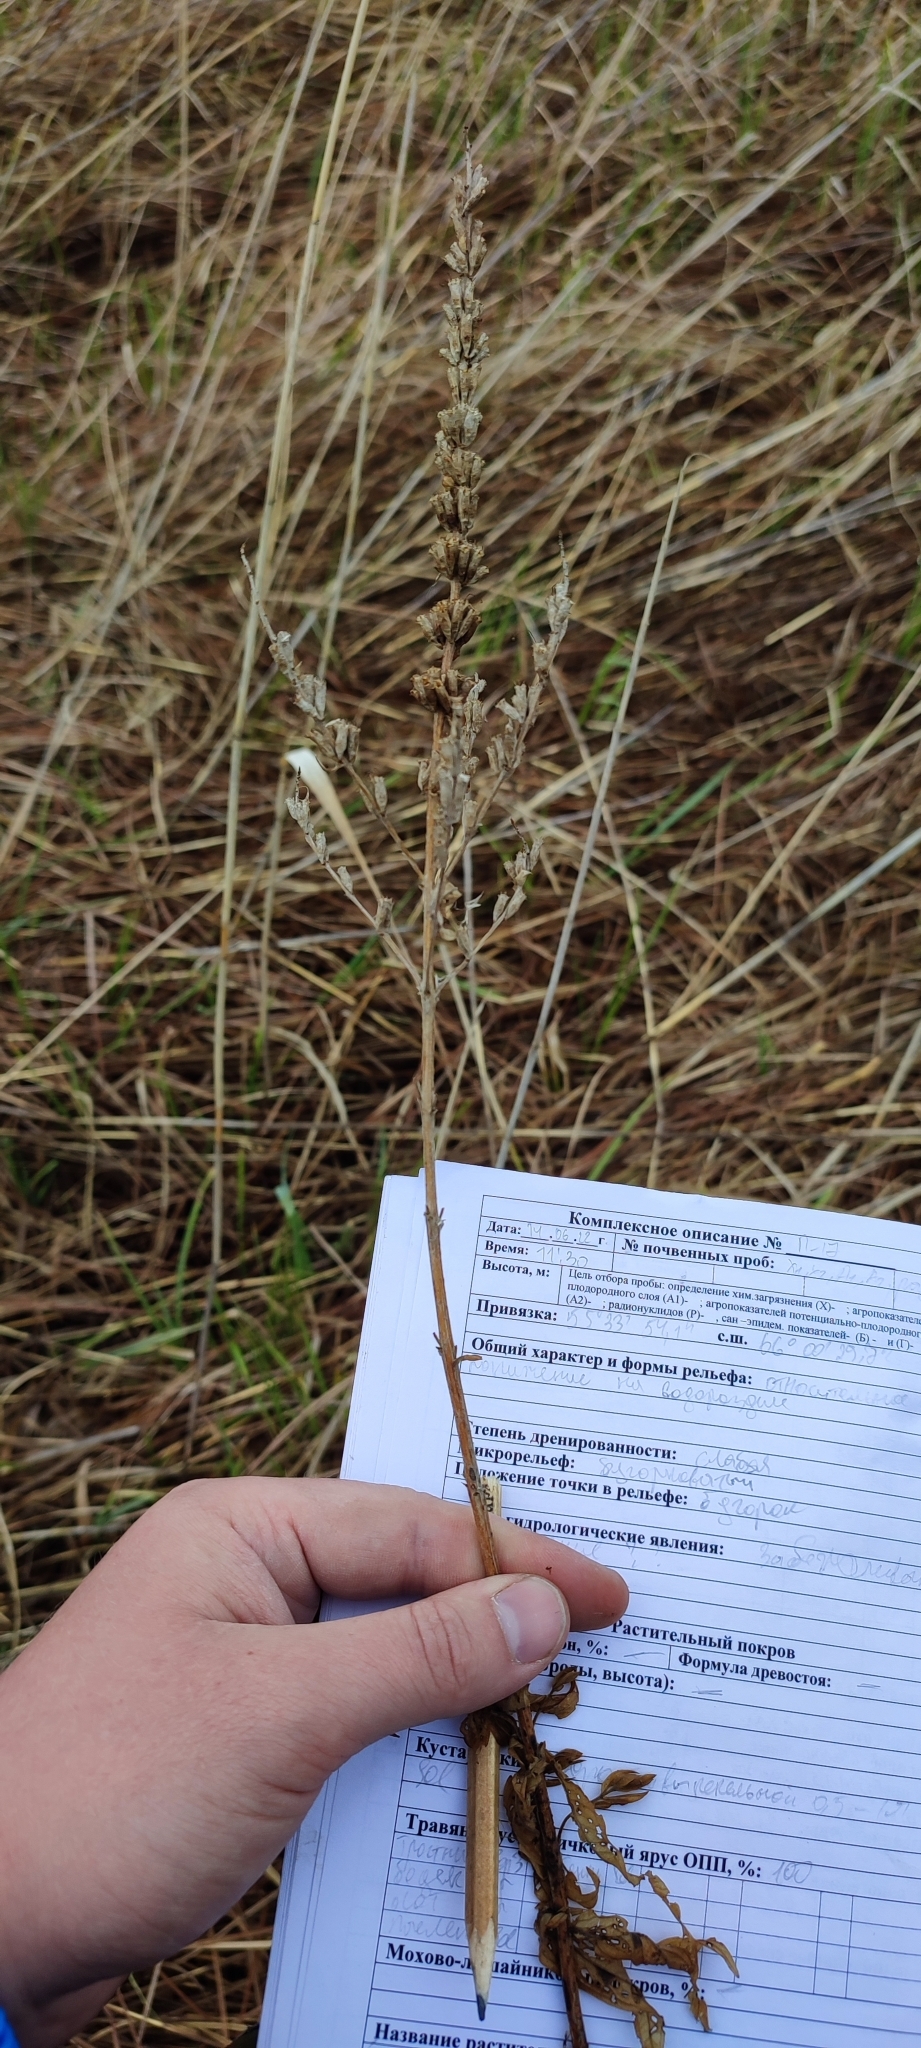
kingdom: Plantae
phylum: Tracheophyta
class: Magnoliopsida
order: Myrtales
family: Lythraceae
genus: Lythrum
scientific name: Lythrum salicaria
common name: Purple loosestrife
